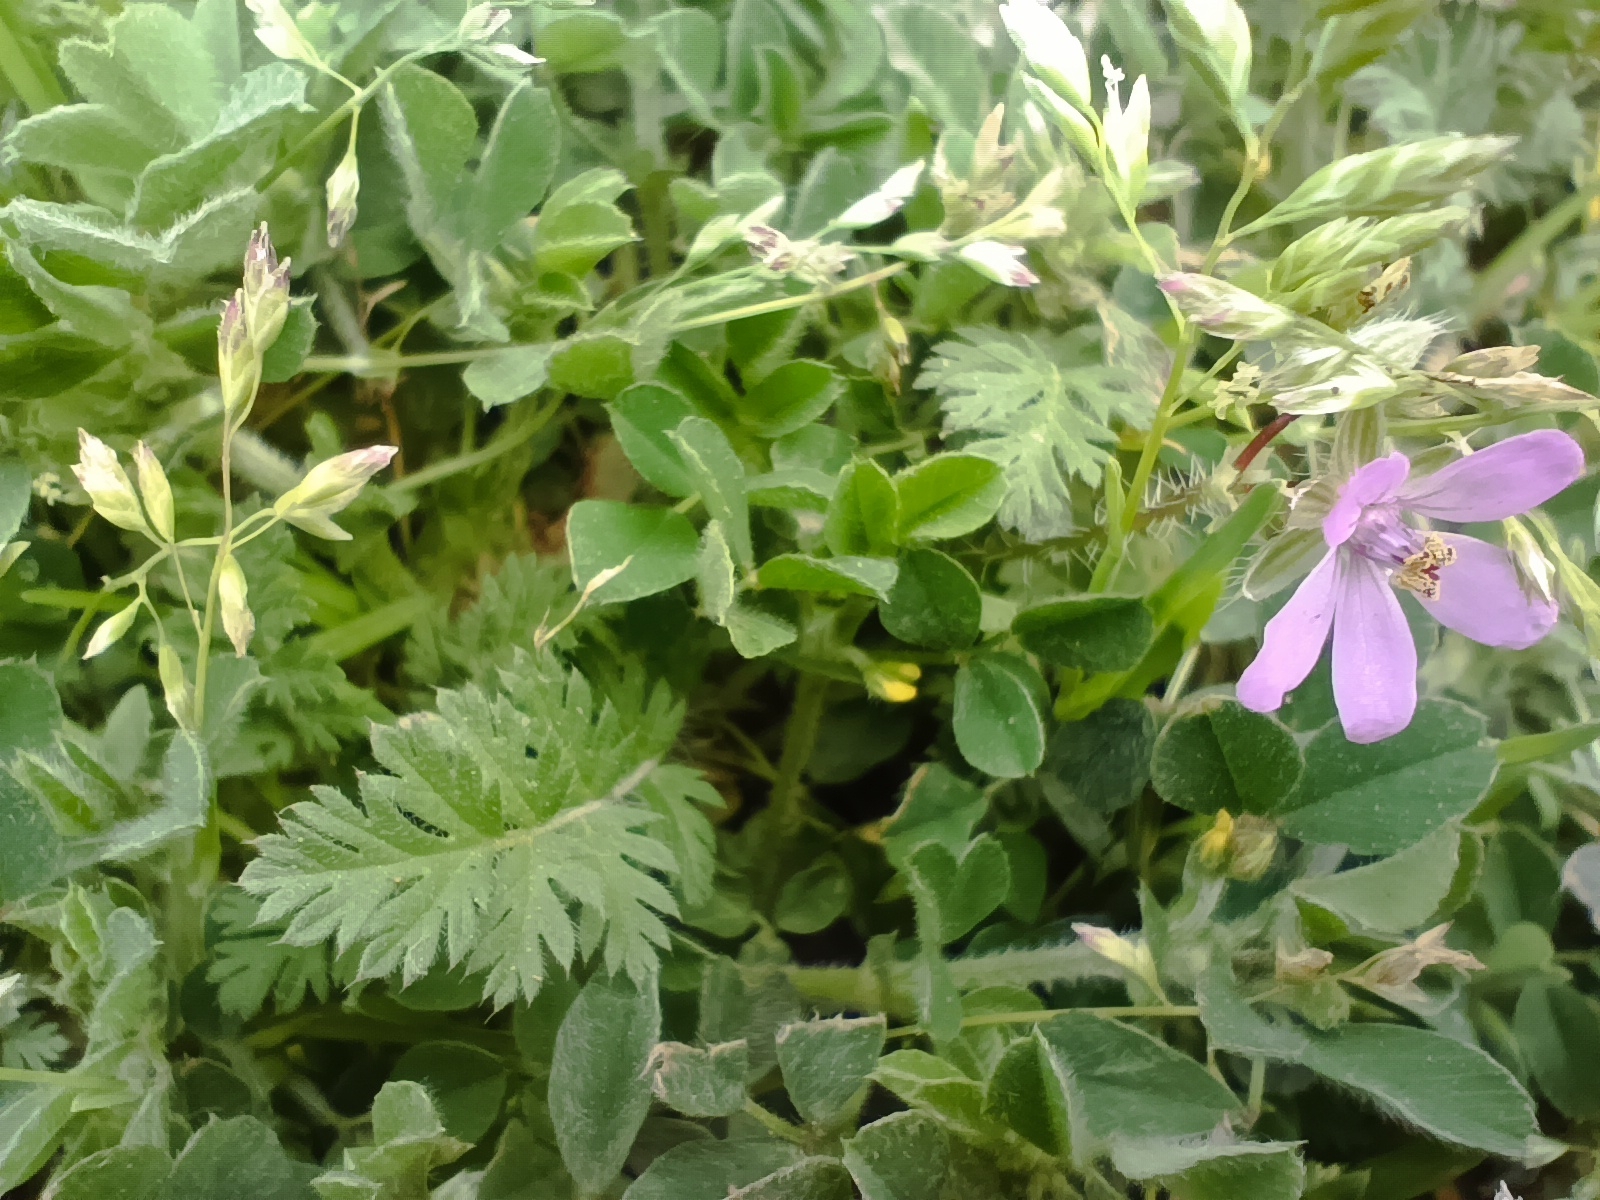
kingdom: Plantae
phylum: Tracheophyta
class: Magnoliopsida
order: Geraniales
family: Geraniaceae
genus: Erodium
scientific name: Erodium cicutarium
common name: Common stork's-bill
